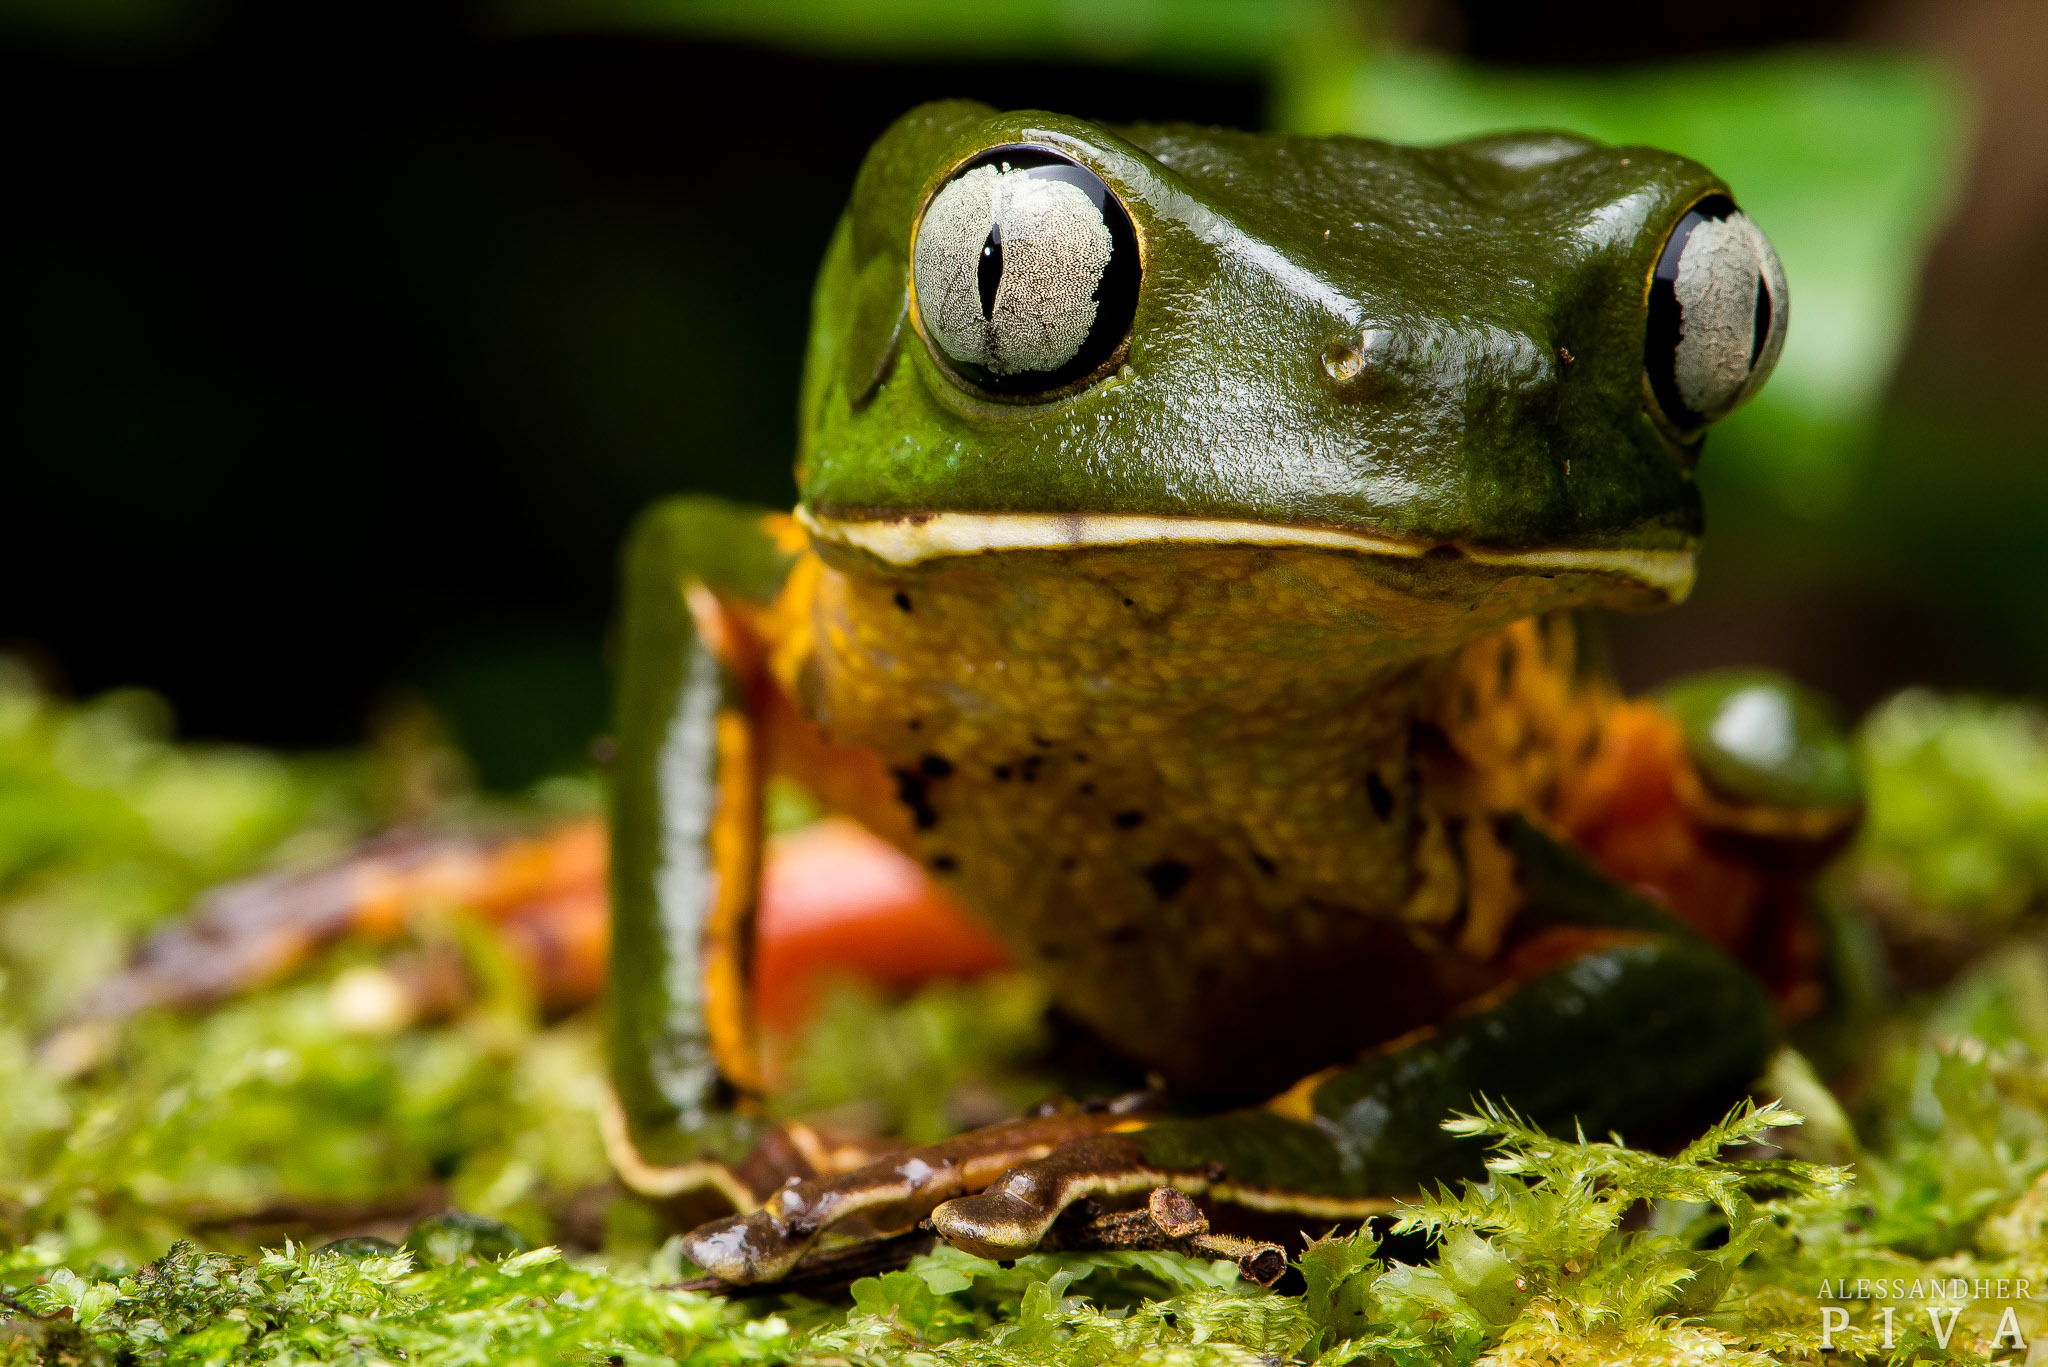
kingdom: Animalia
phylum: Chordata
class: Amphibia
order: Anura
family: Phyllomedusidae
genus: Phyllomedusa
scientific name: Phyllomedusa distincta
